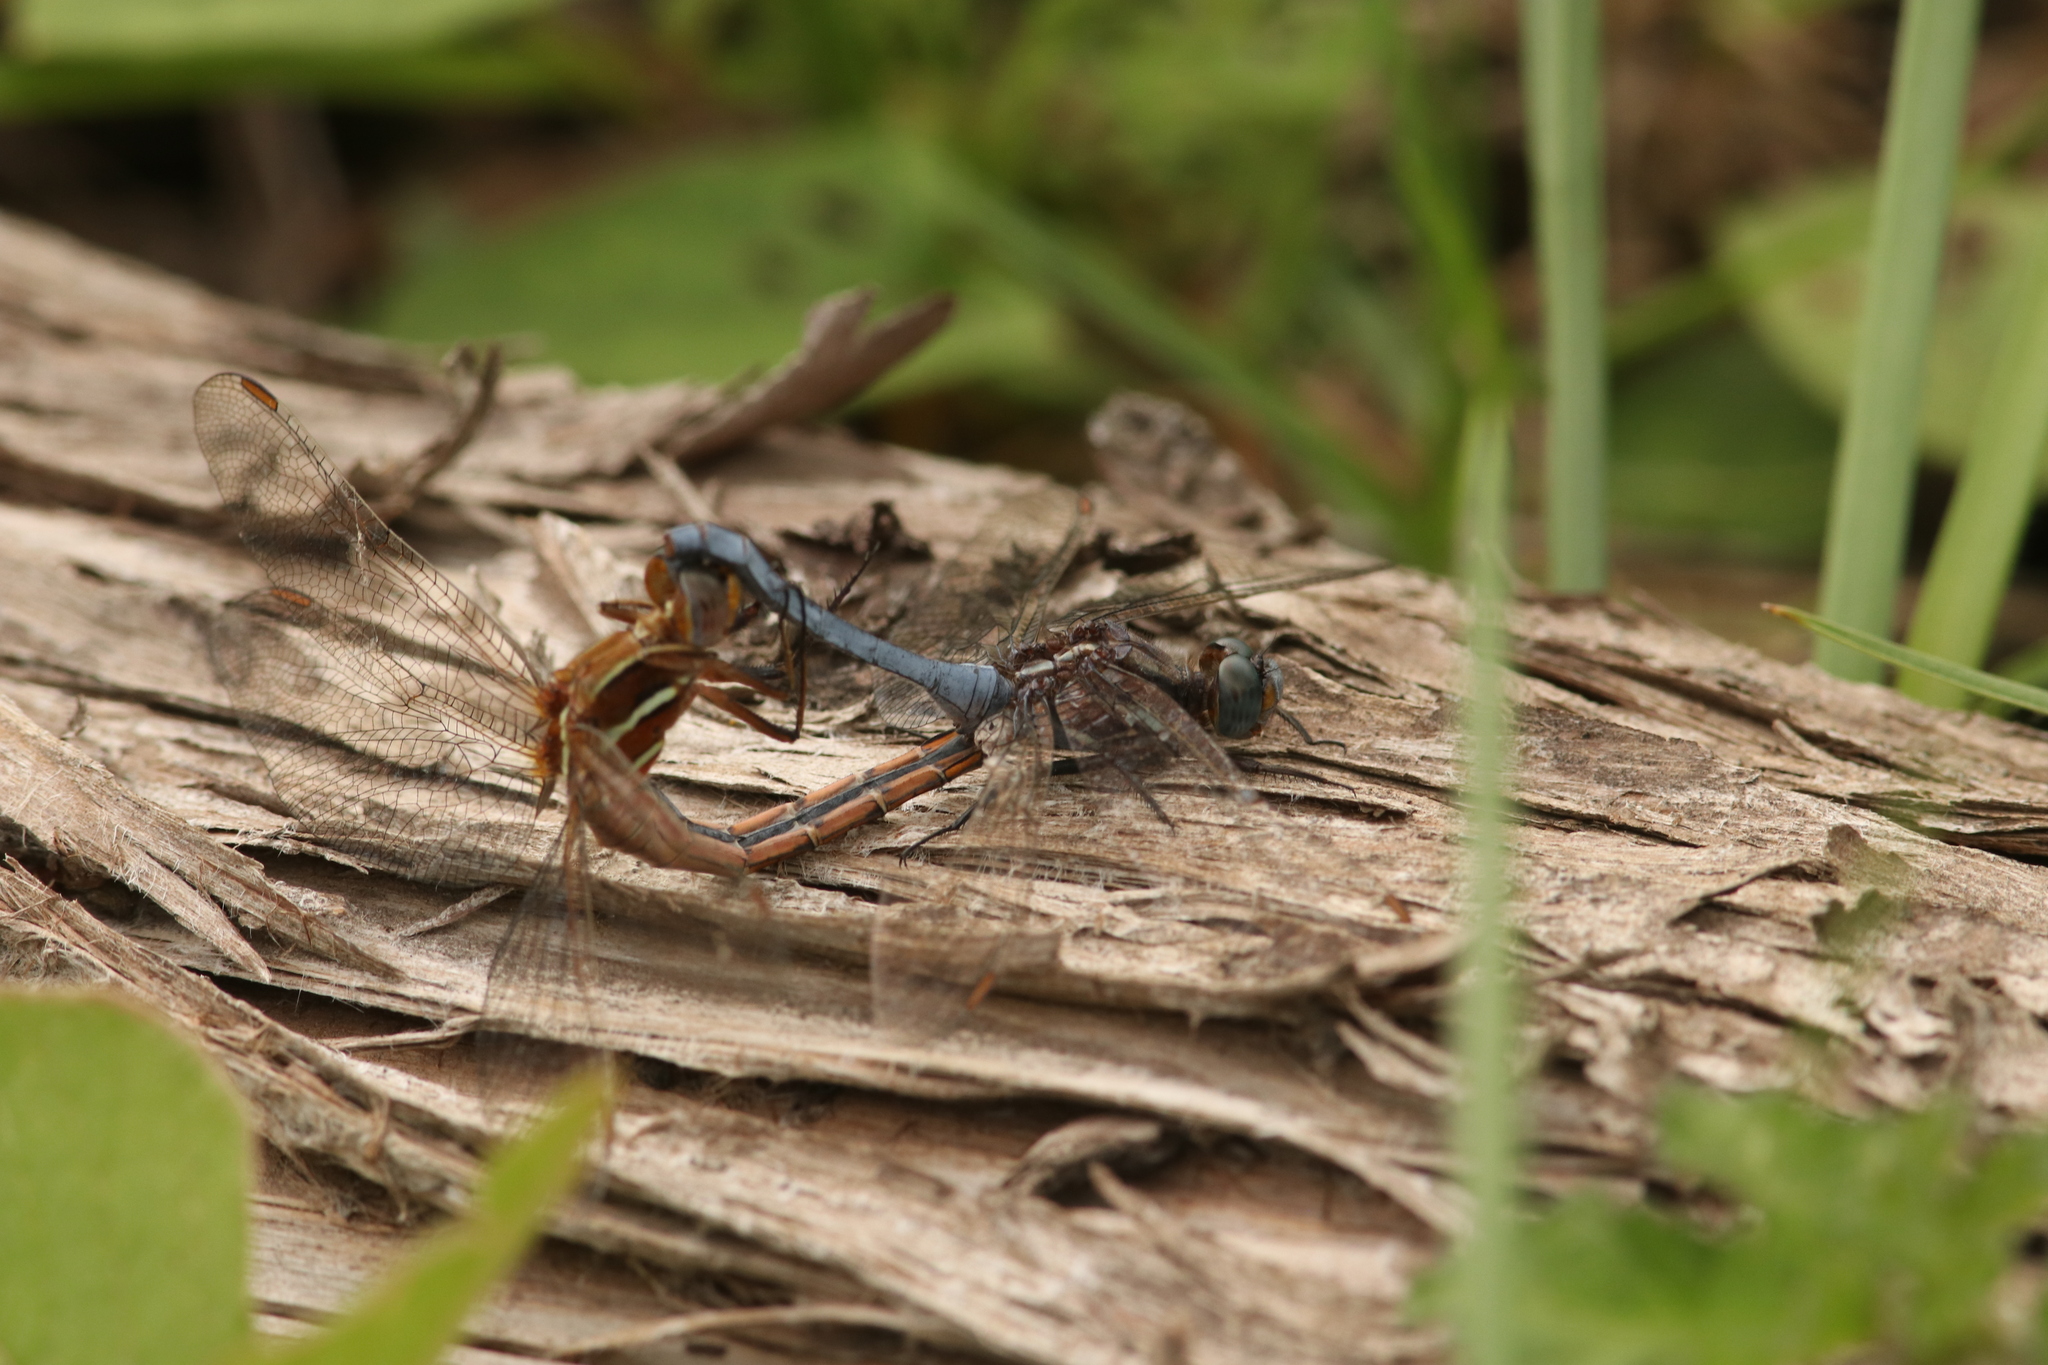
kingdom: Animalia
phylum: Arthropoda
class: Insecta
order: Odonata
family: Libellulidae
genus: Orthetrum
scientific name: Orthetrum caffrum
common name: Two-striped skimmer
